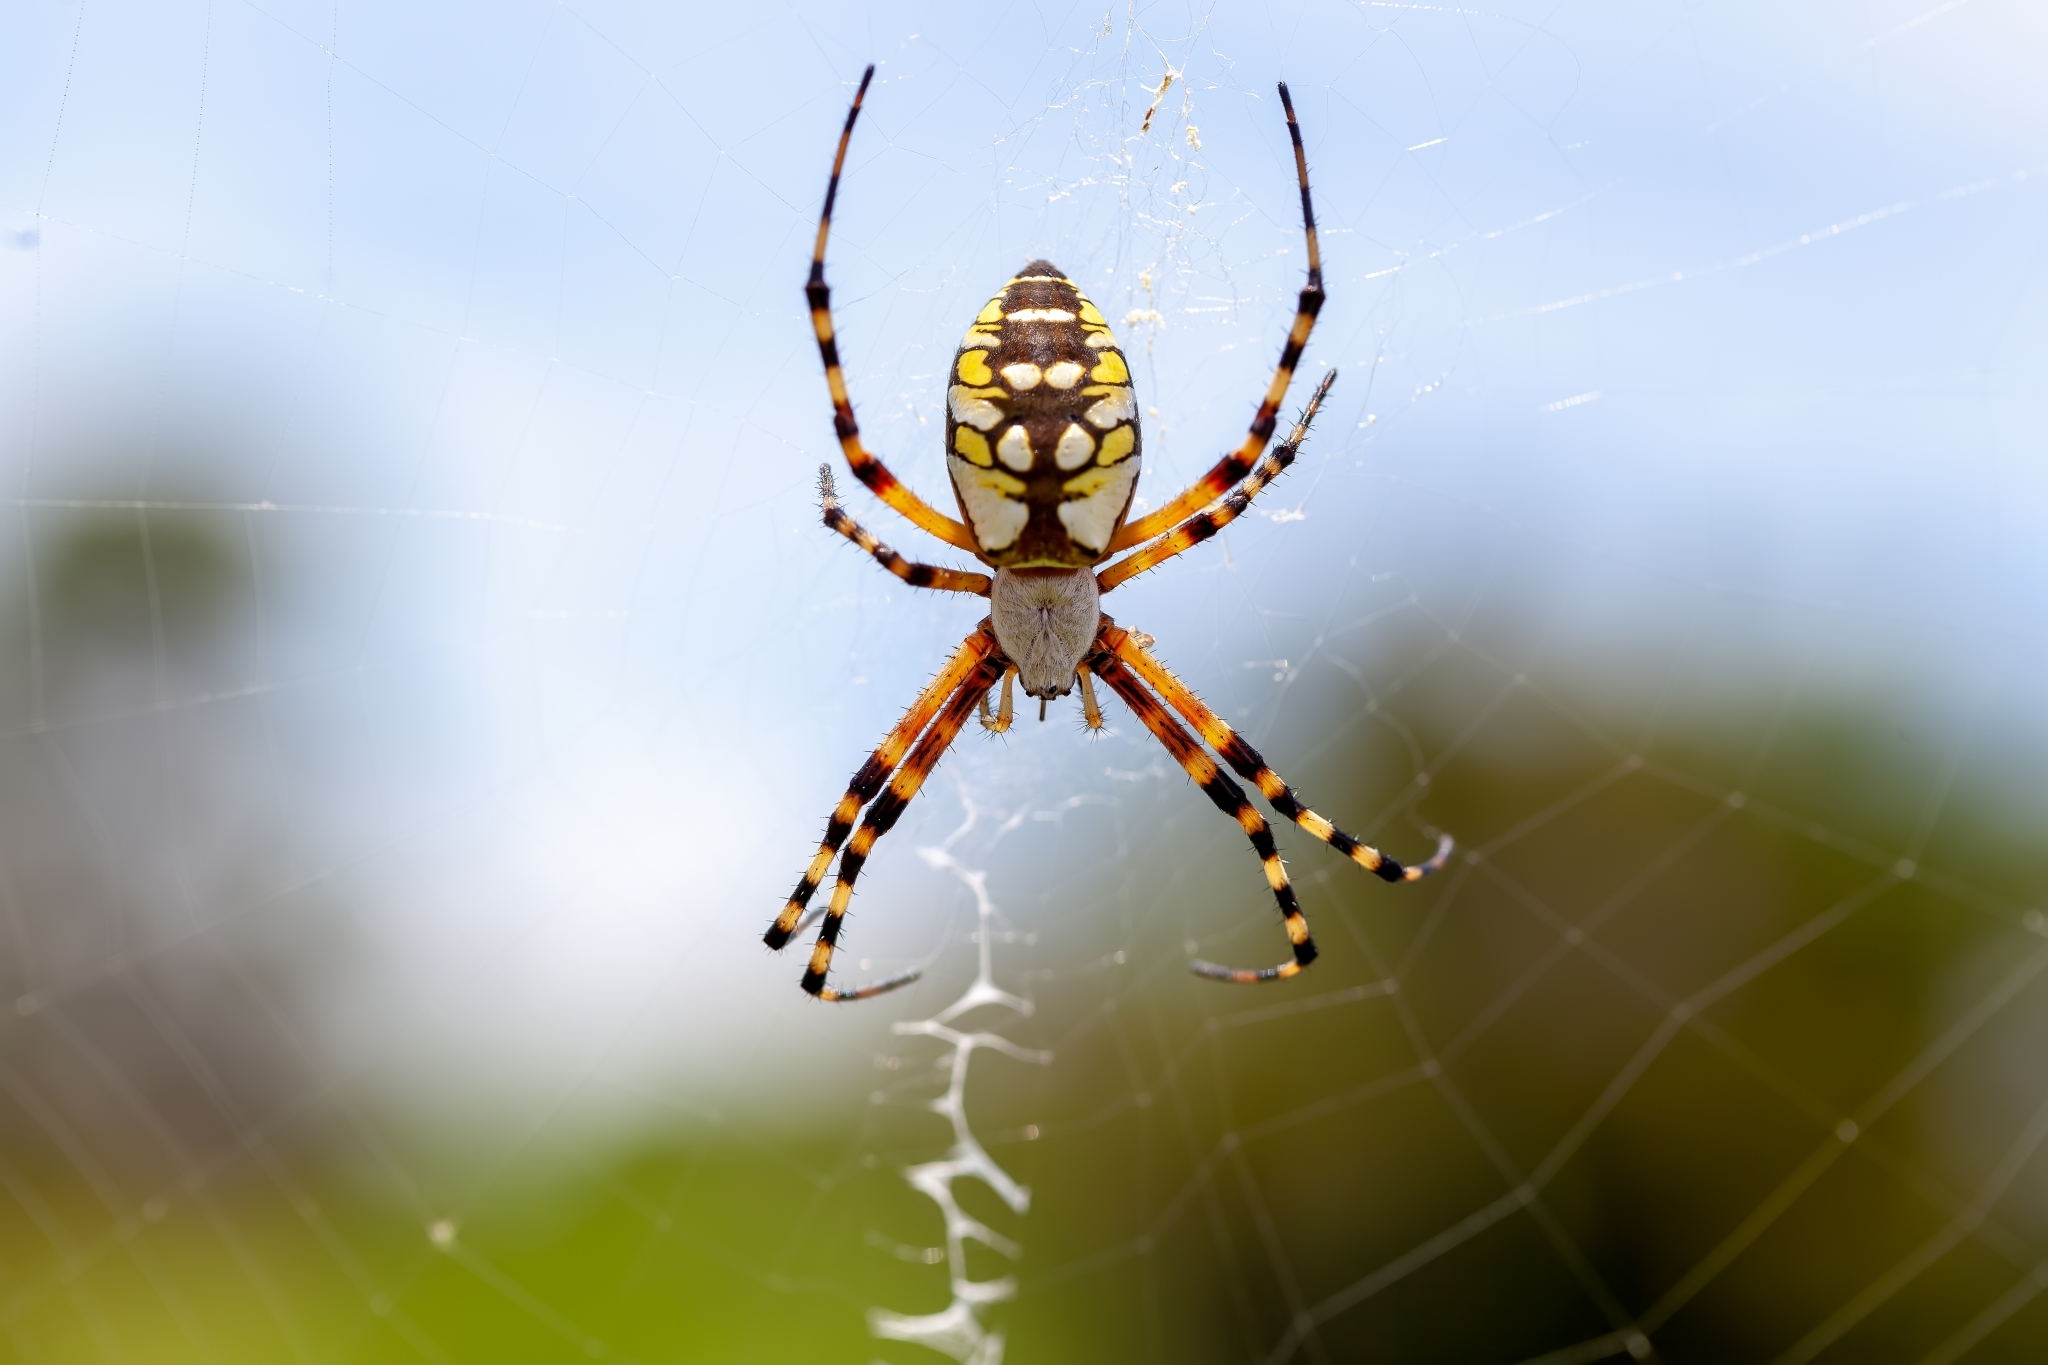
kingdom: Animalia
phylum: Arthropoda
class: Arachnida
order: Araneae
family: Araneidae
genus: Argiope
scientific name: Argiope aurantia
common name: Orb weavers
